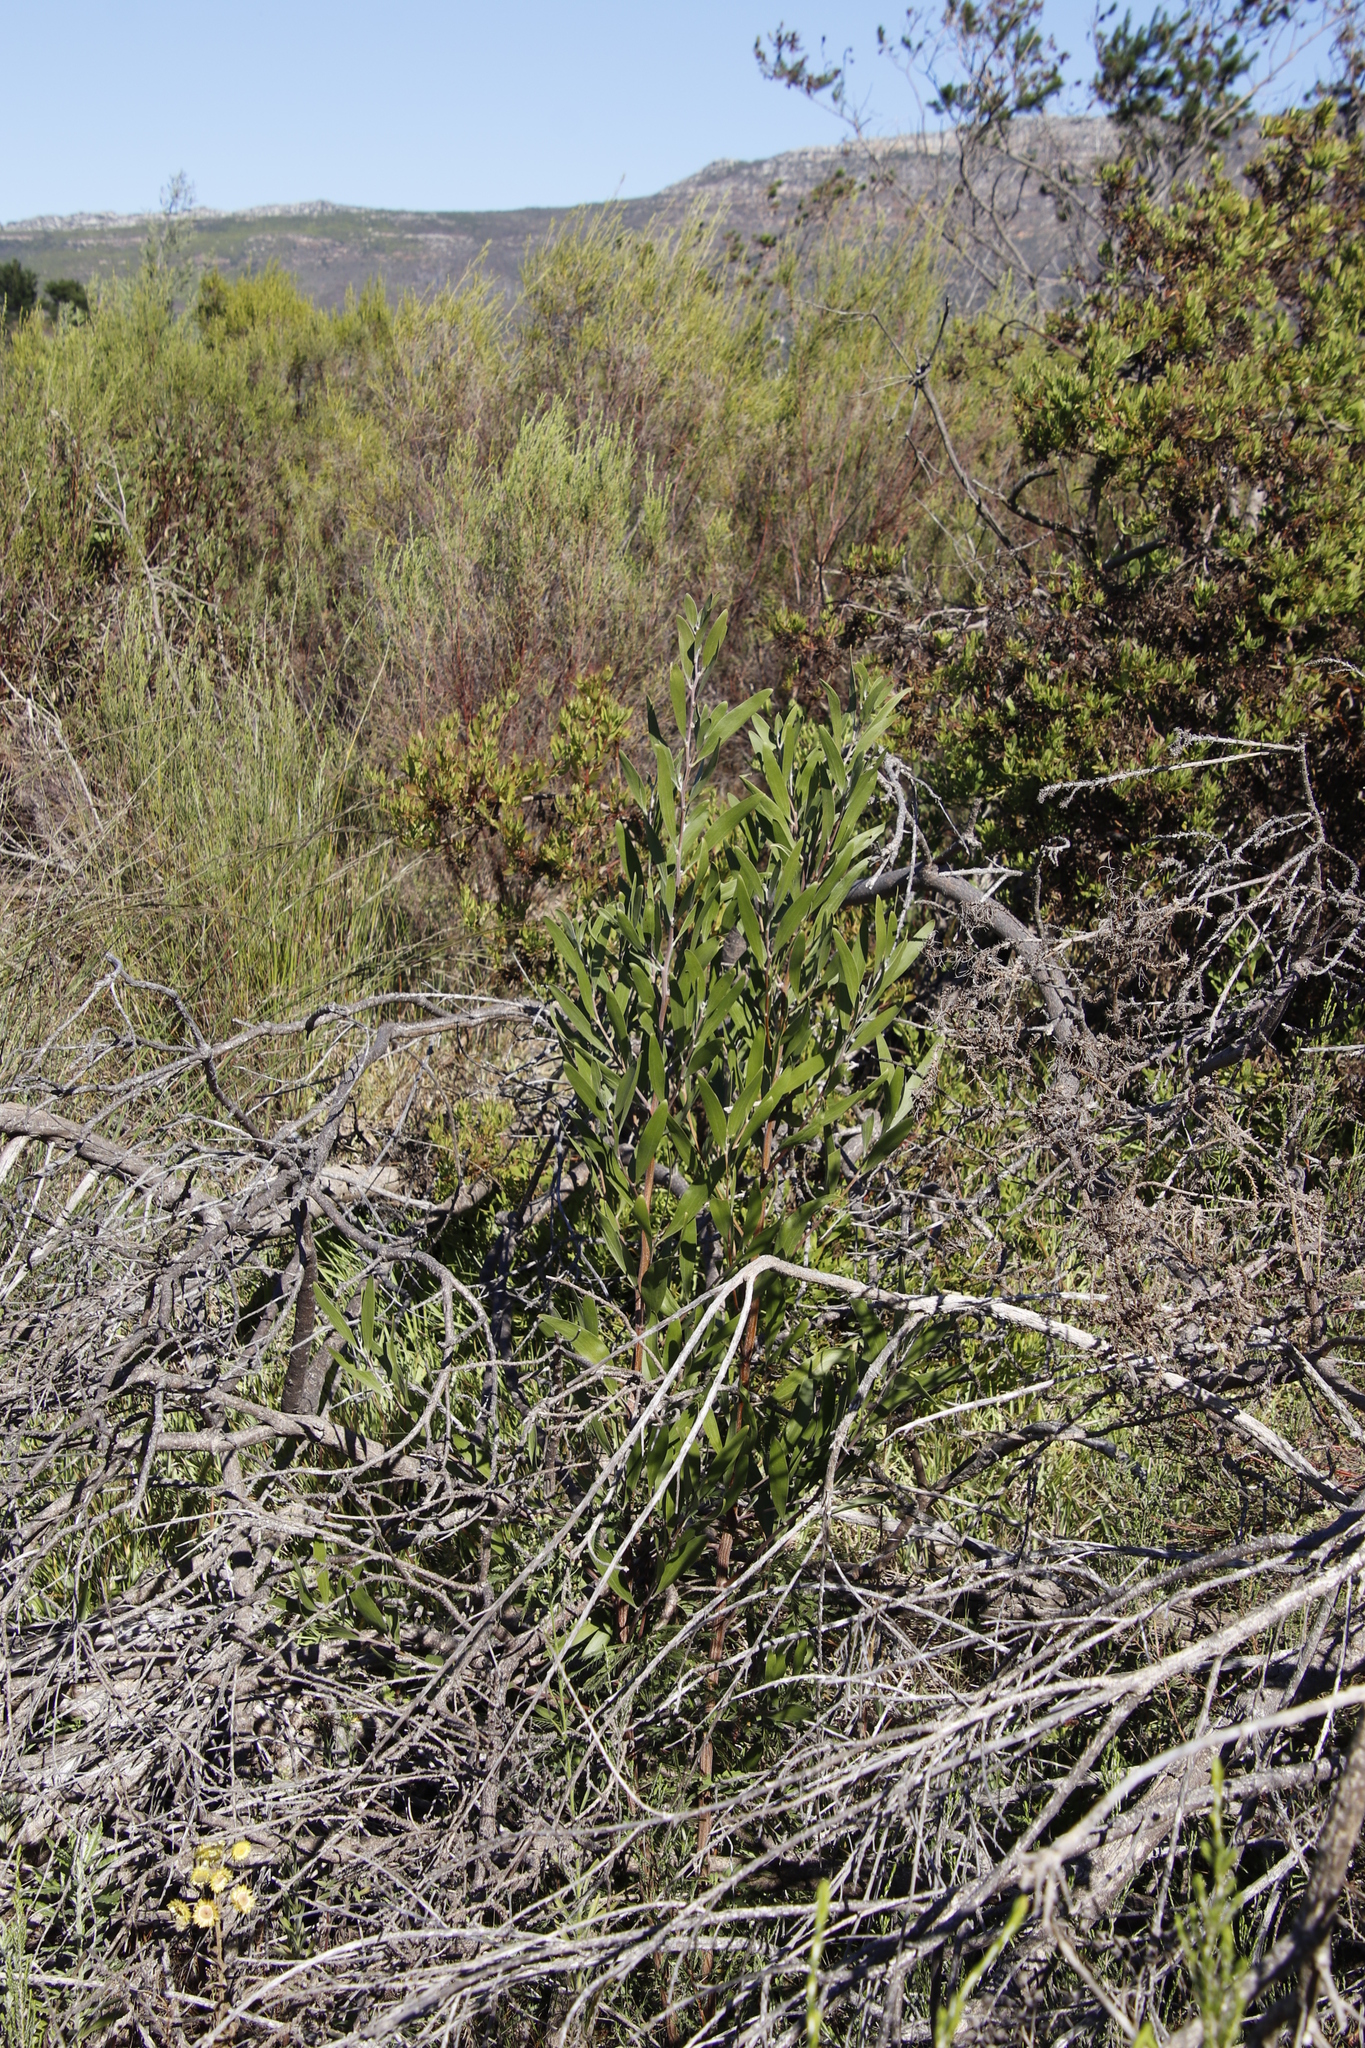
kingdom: Plantae
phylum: Tracheophyta
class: Magnoliopsida
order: Fabales
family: Fabaceae
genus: Acacia
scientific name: Acacia melanoxylon
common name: Blackwood
